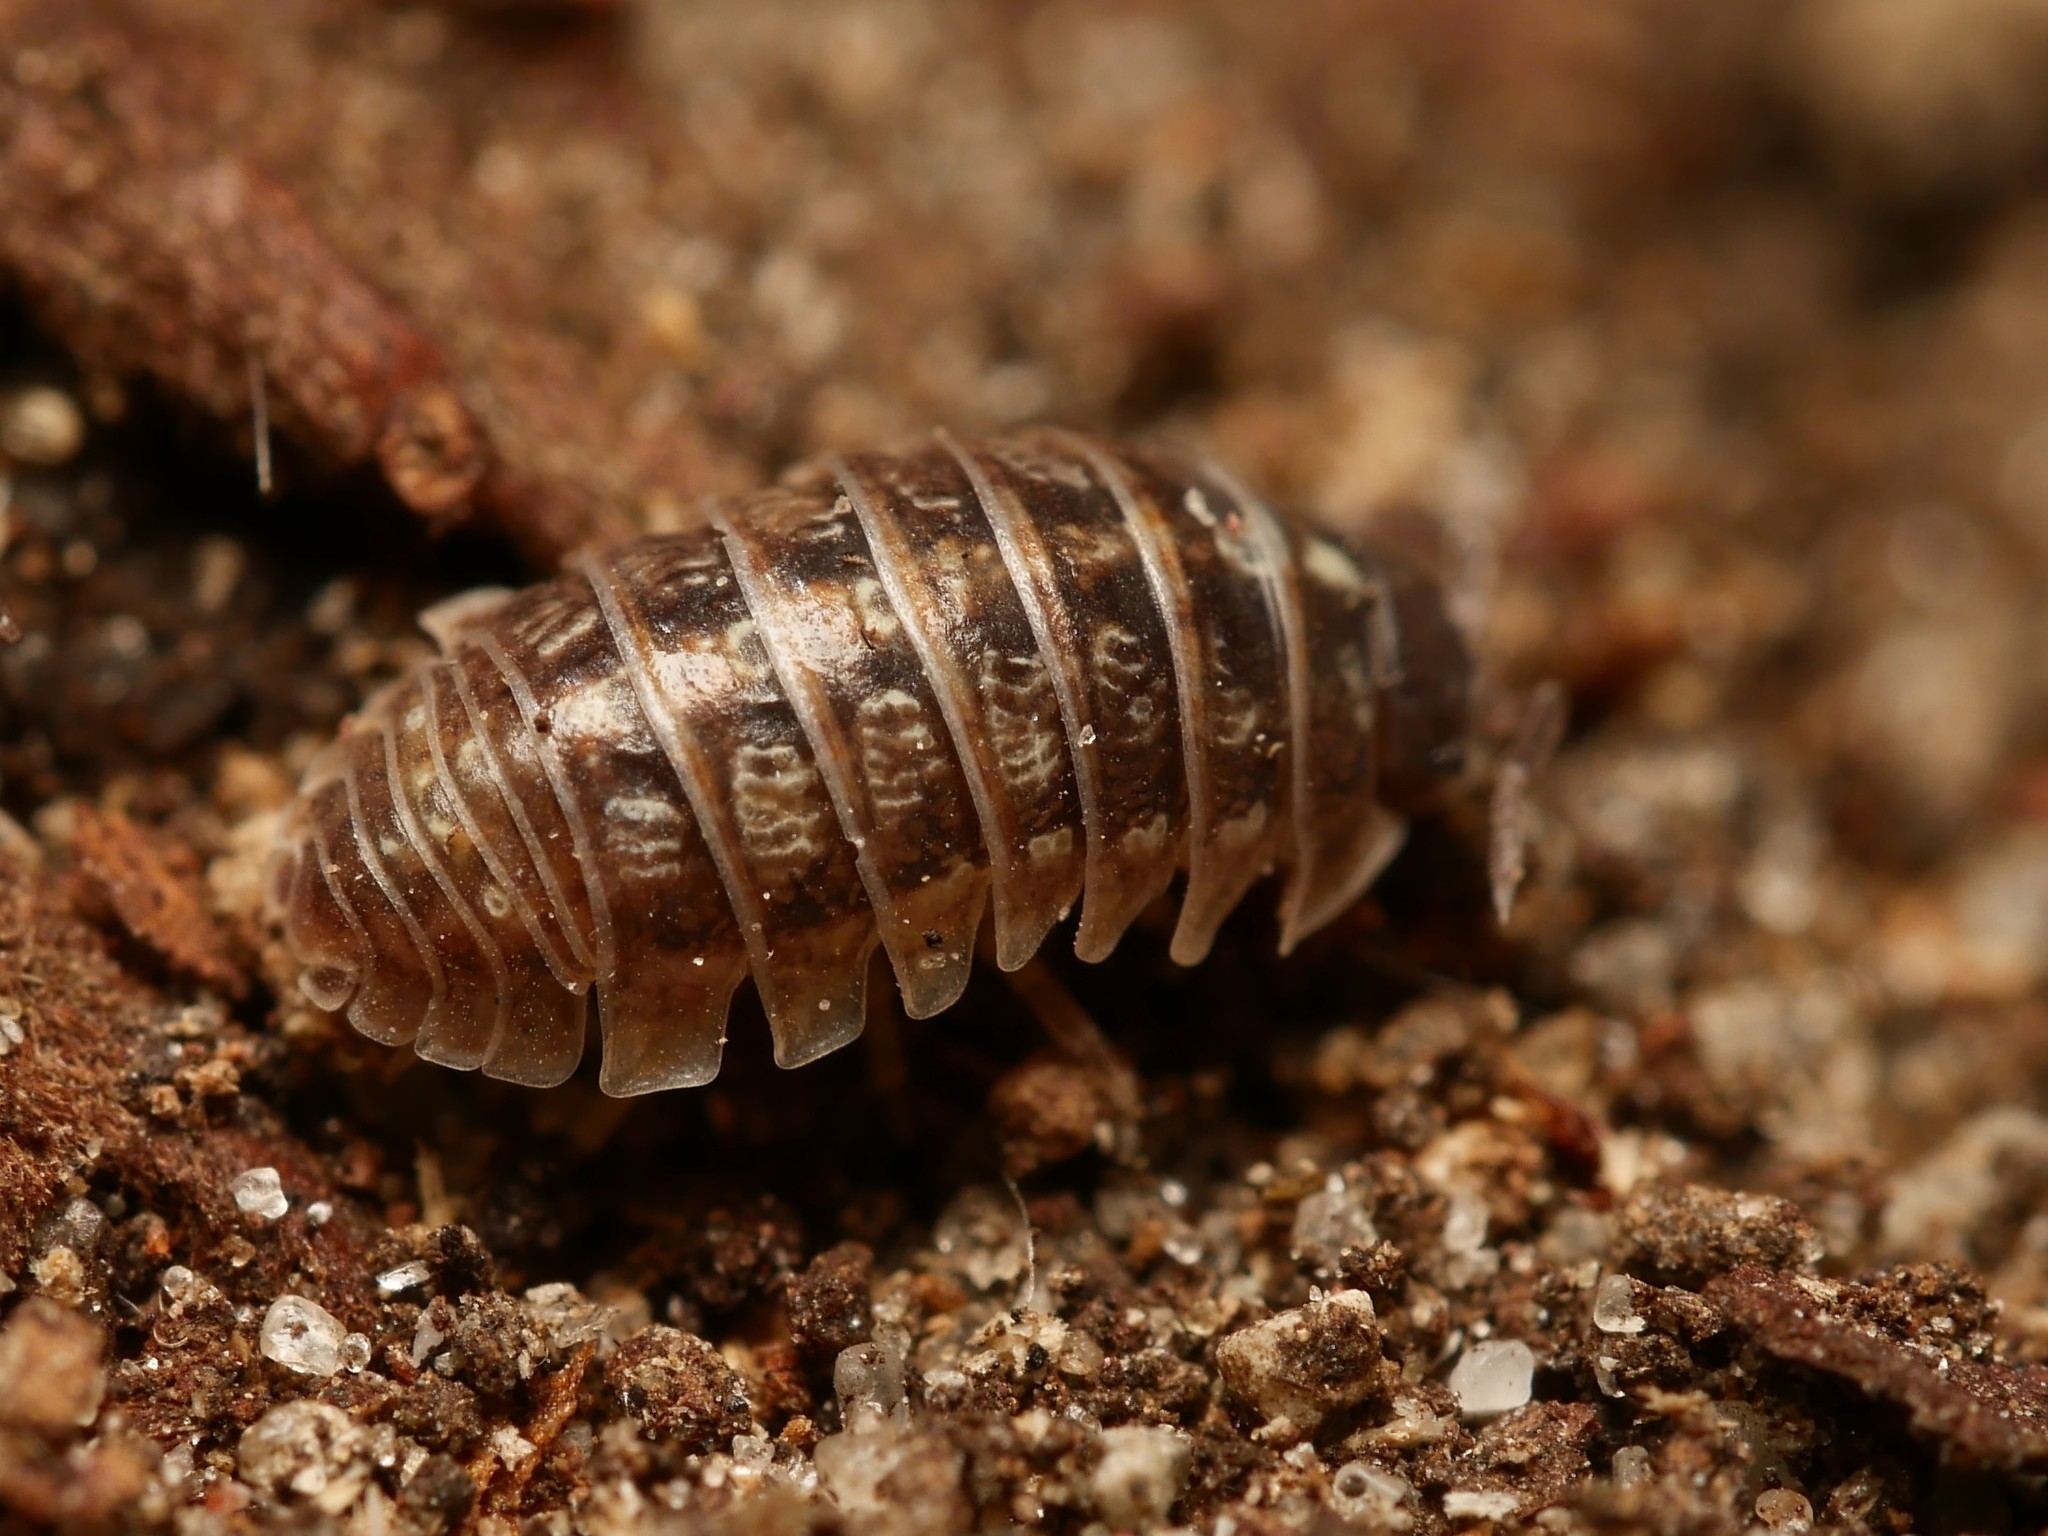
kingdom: Animalia
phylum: Arthropoda
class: Malacostraca
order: Isopoda
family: Armadillidiidae
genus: Armadillidium
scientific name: Armadillidium vulgare
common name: Common pill woodlouse
